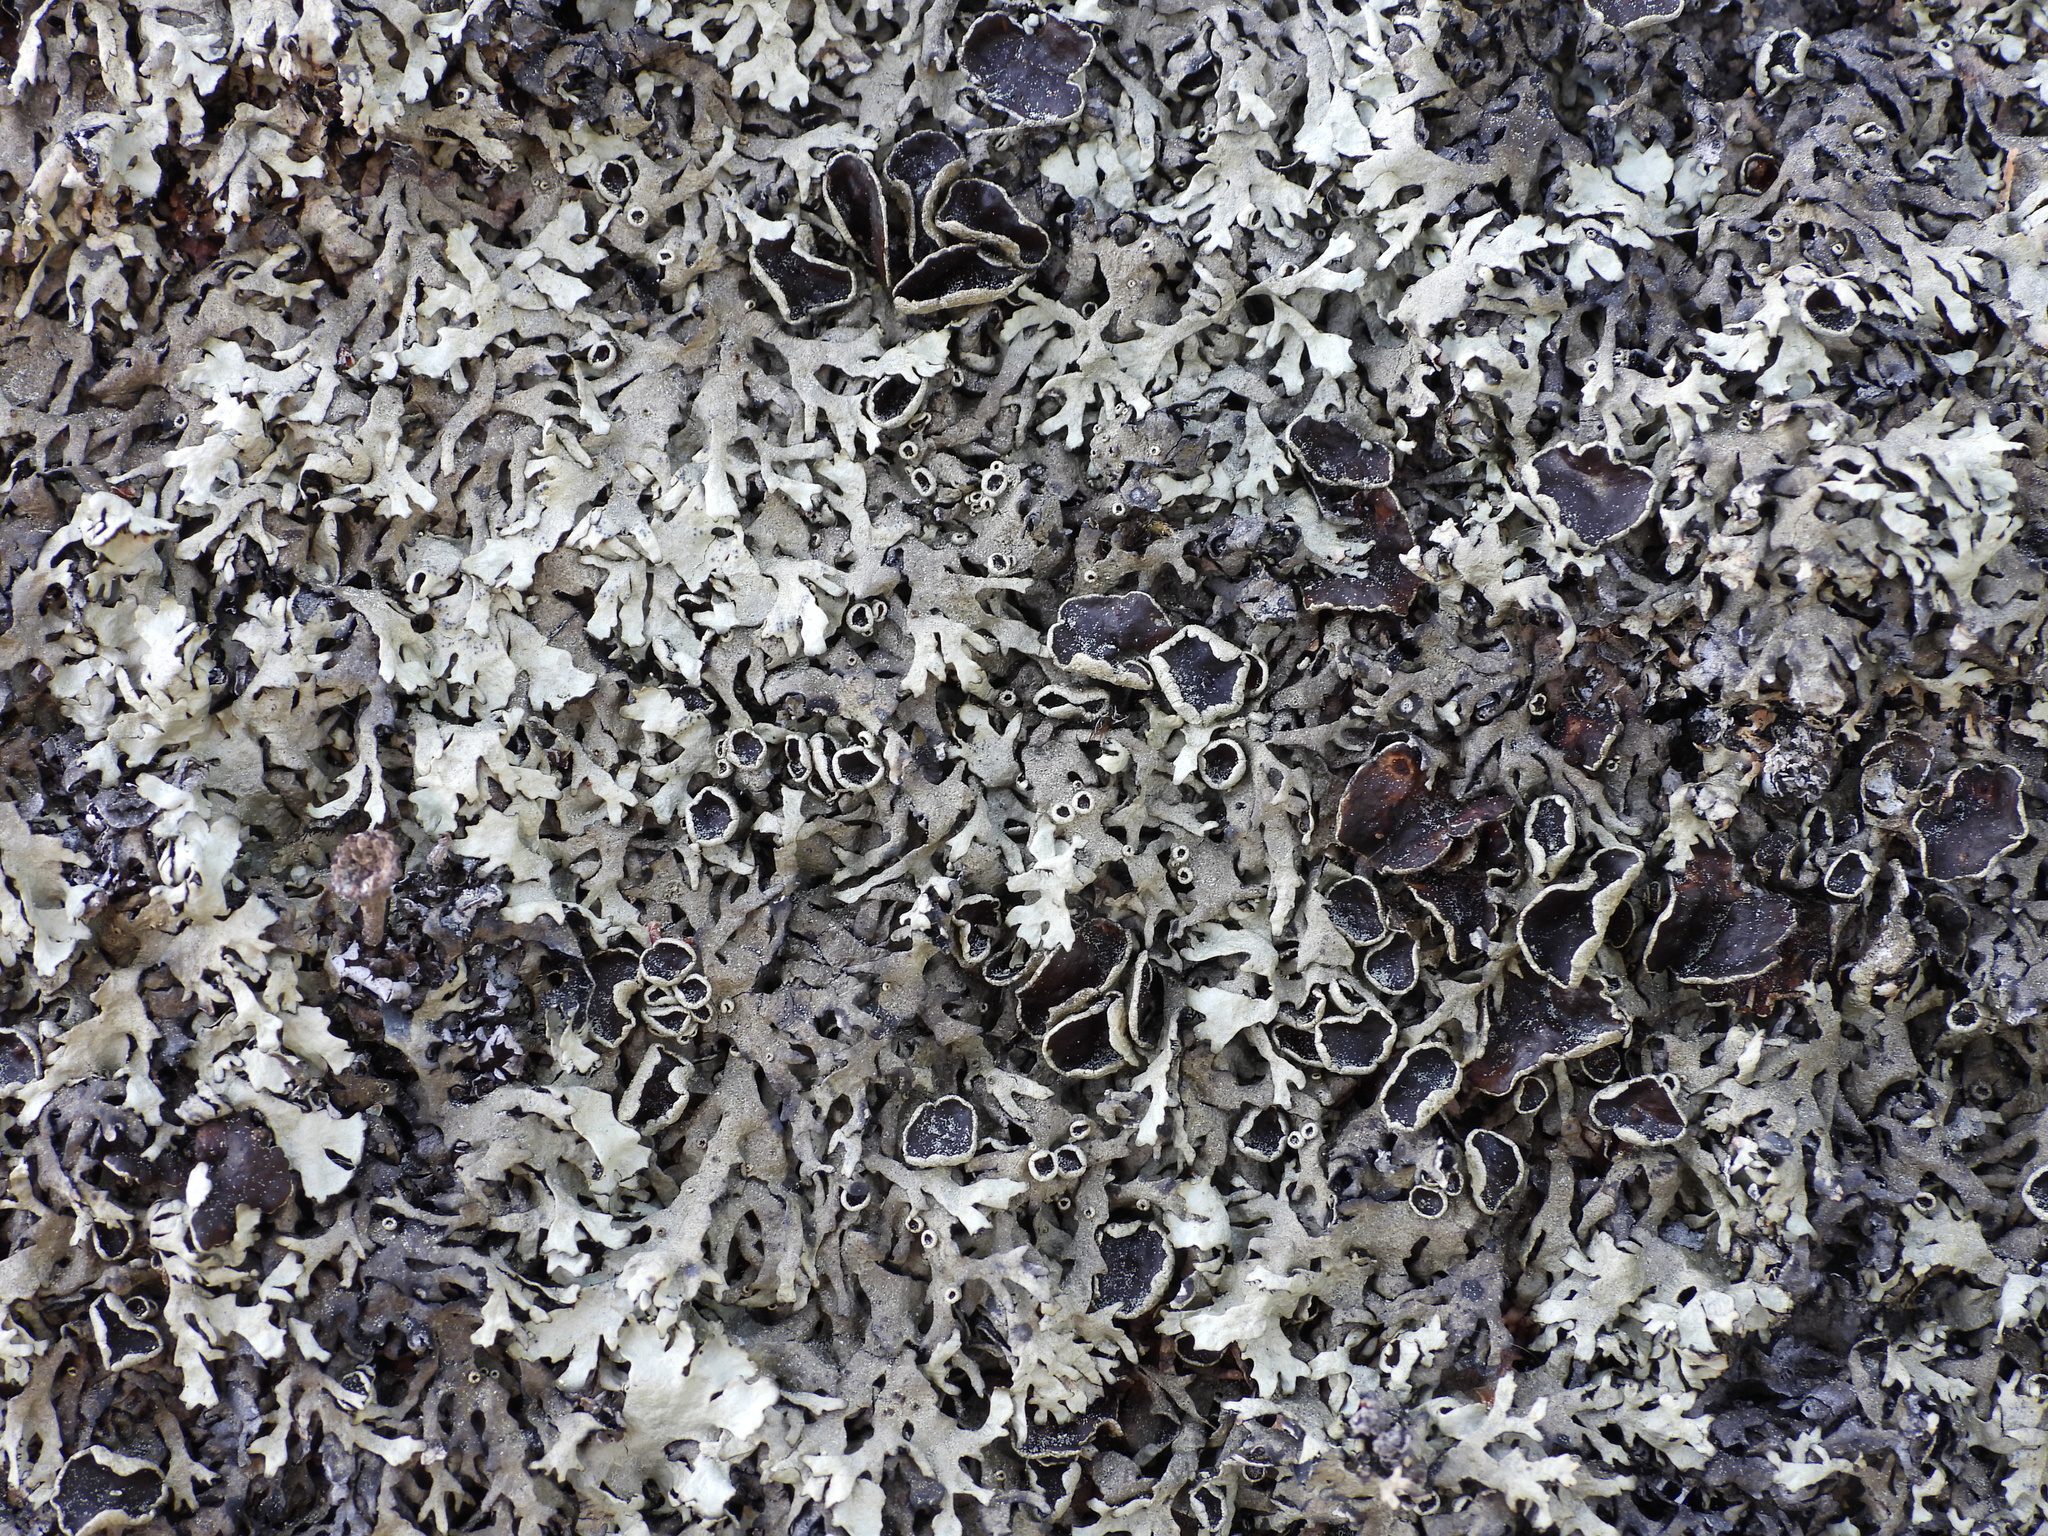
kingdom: Fungi
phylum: Ascomycota
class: Lecanoromycetes
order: Lecanorales
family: Parmeliaceae
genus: Xanthoparmelia
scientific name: Xanthoparmelia stenophylla
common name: Shingled rock shield
